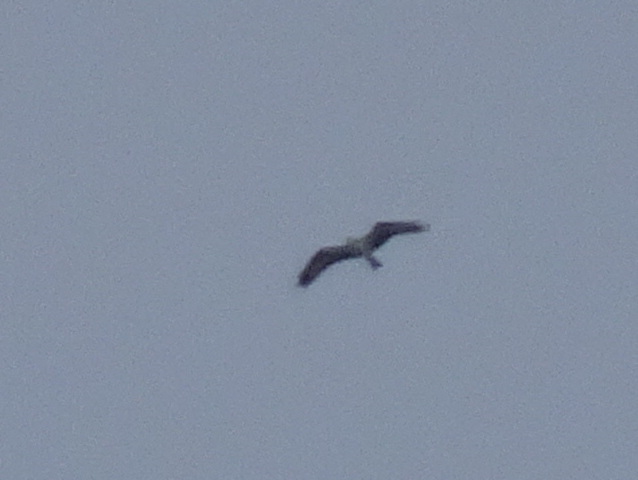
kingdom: Animalia
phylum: Chordata
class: Aves
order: Accipitriformes
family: Pandionidae
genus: Pandion
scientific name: Pandion haliaetus
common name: Osprey
